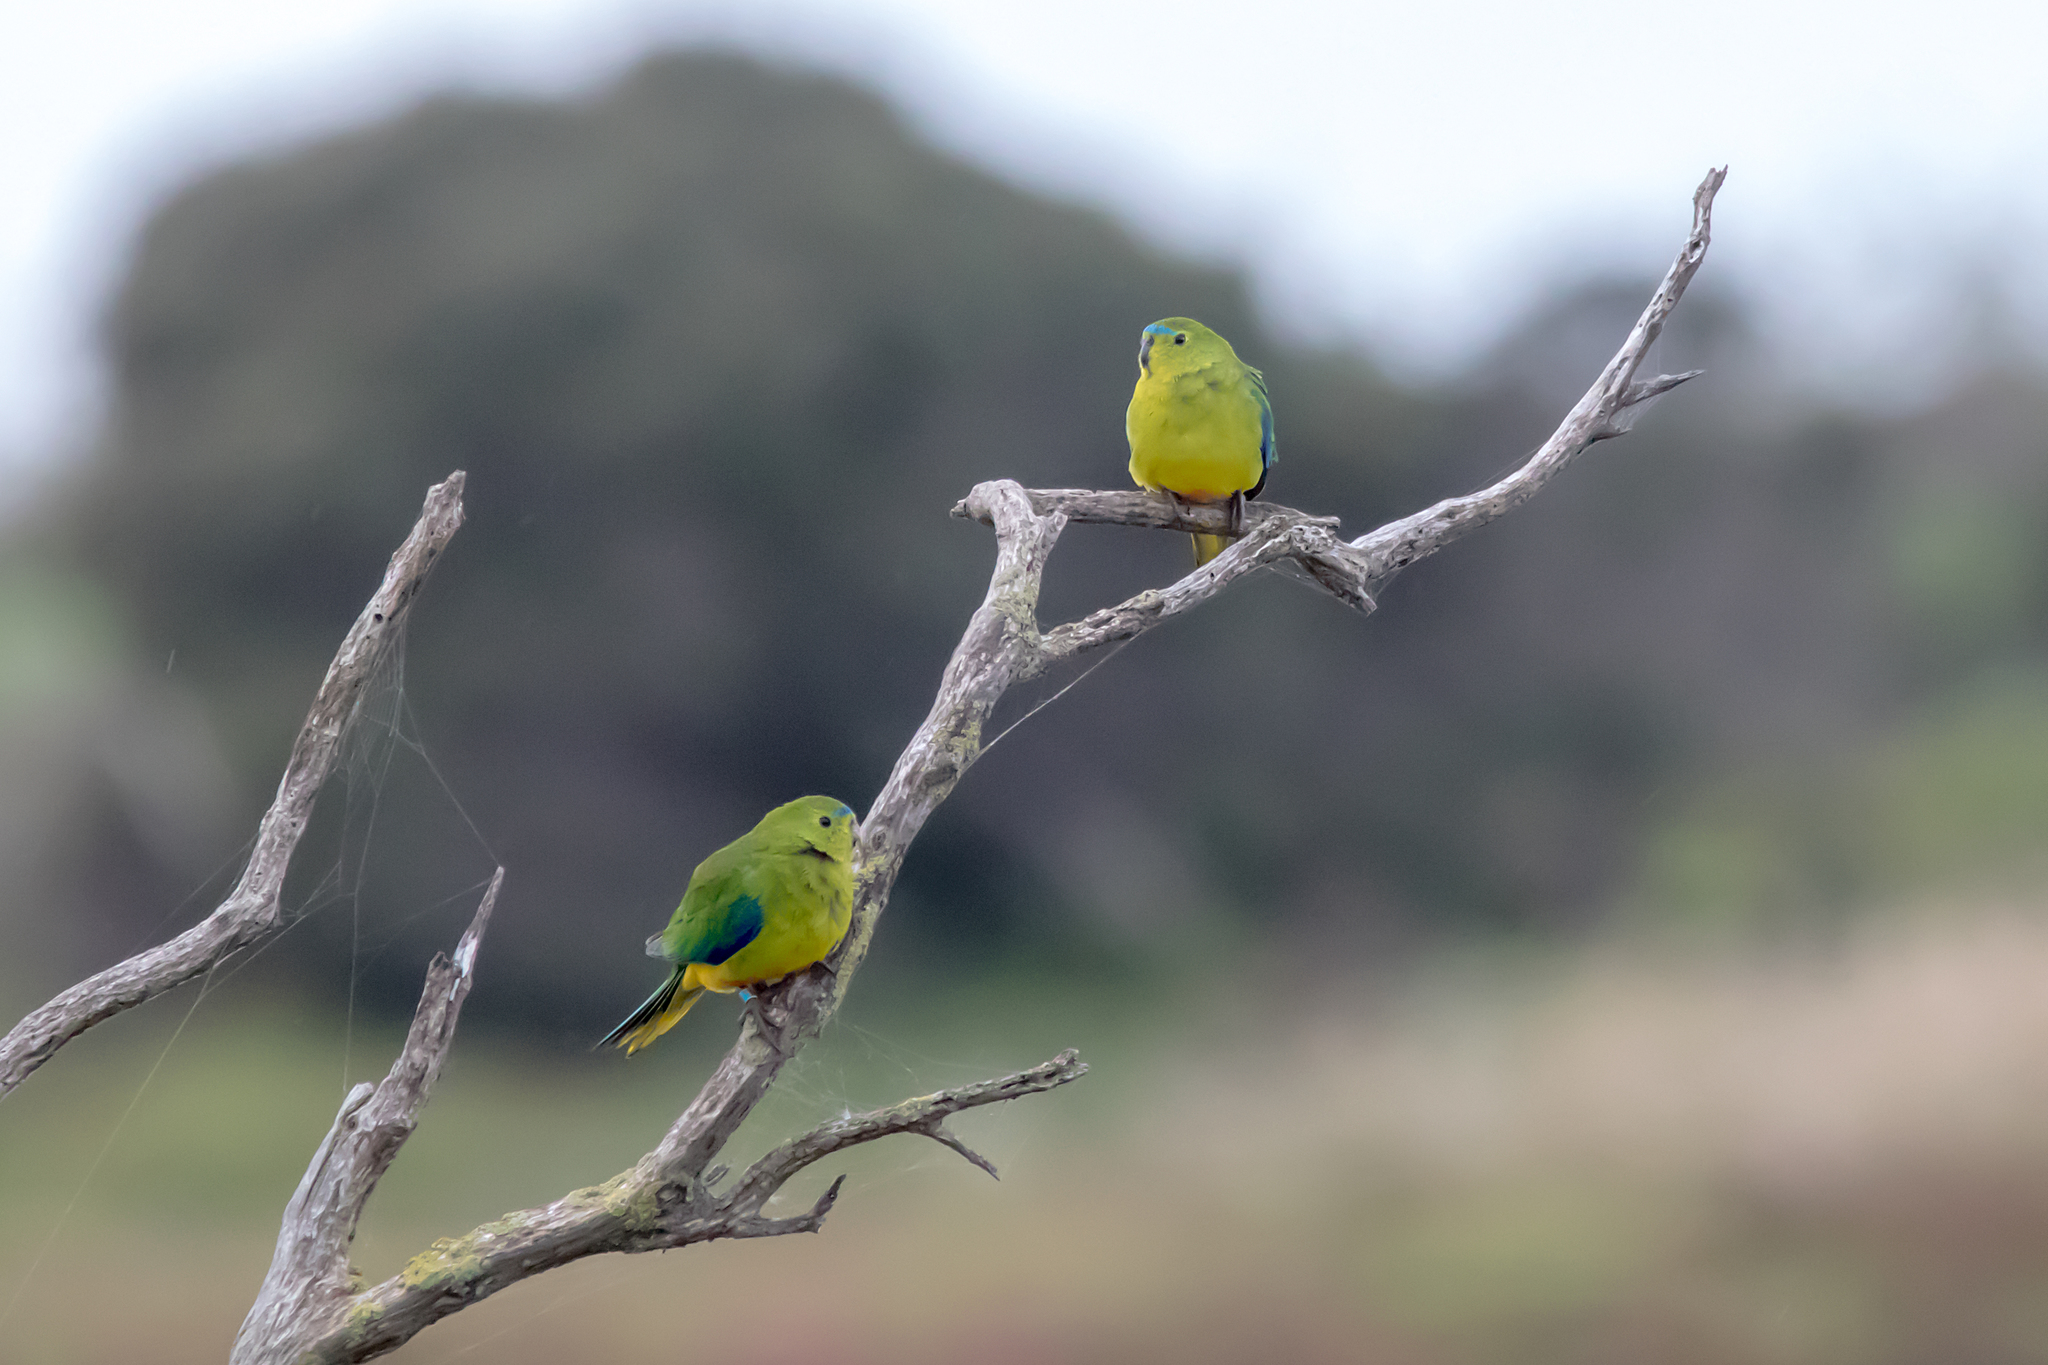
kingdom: Animalia
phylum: Chordata
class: Aves
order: Psittaciformes
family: Psittacidae
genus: Neophema
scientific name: Neophema chrysogaster
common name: Orange-bellied parrot
